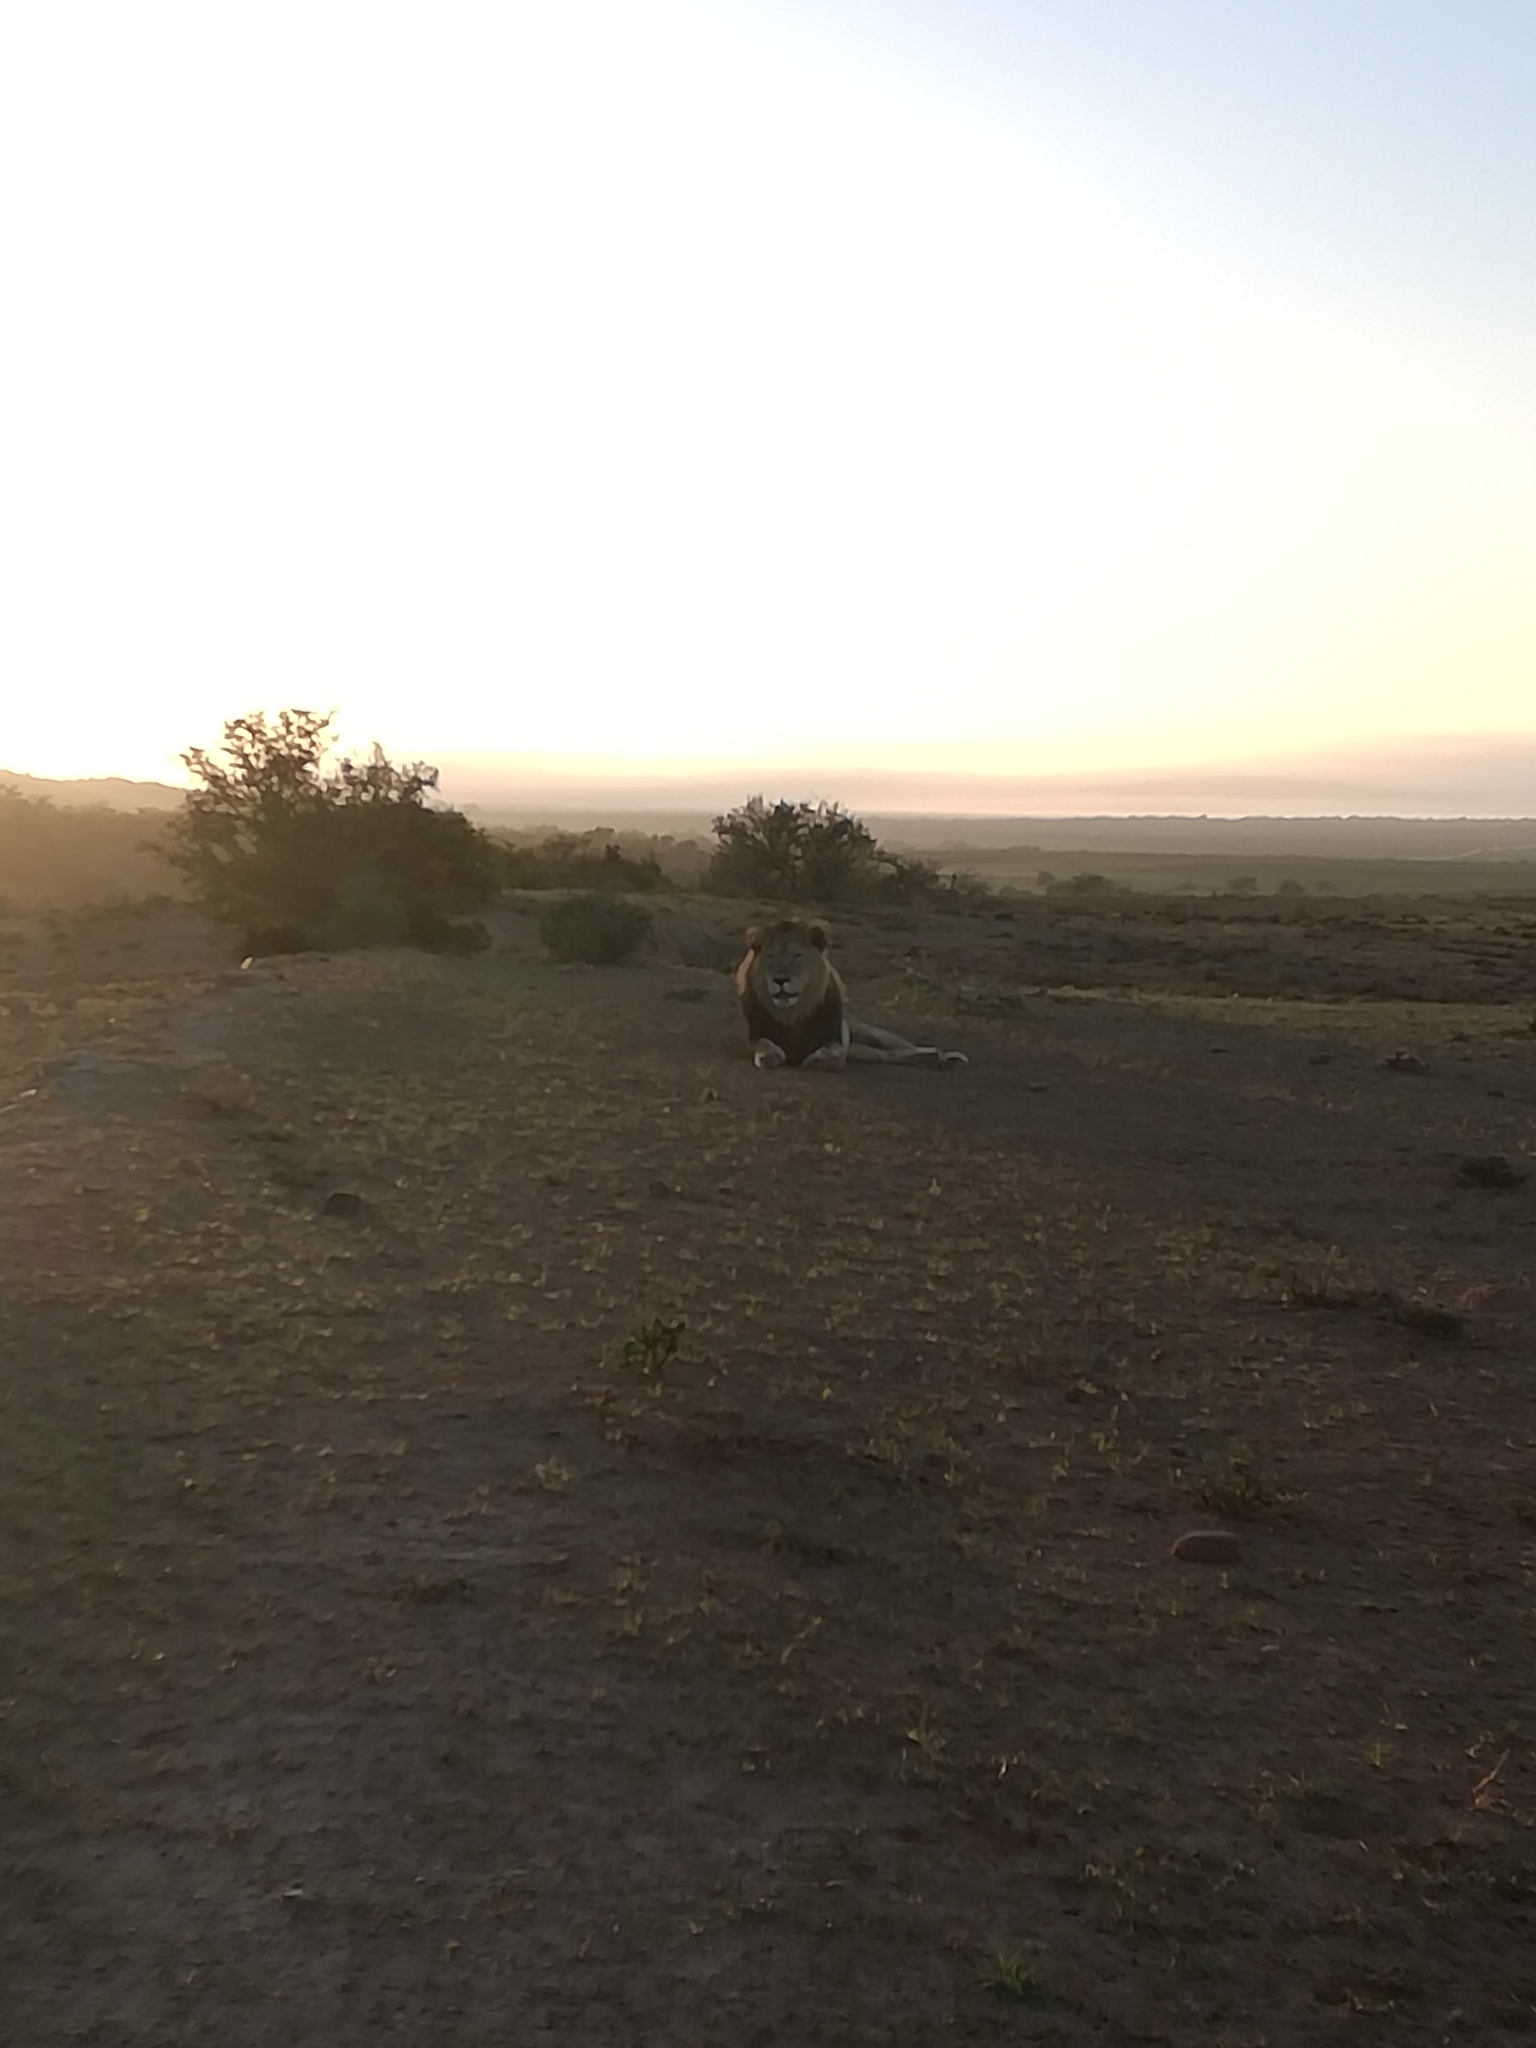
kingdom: Animalia
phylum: Chordata
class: Mammalia
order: Carnivora
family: Felidae
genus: Panthera
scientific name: Panthera leo
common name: Lion
